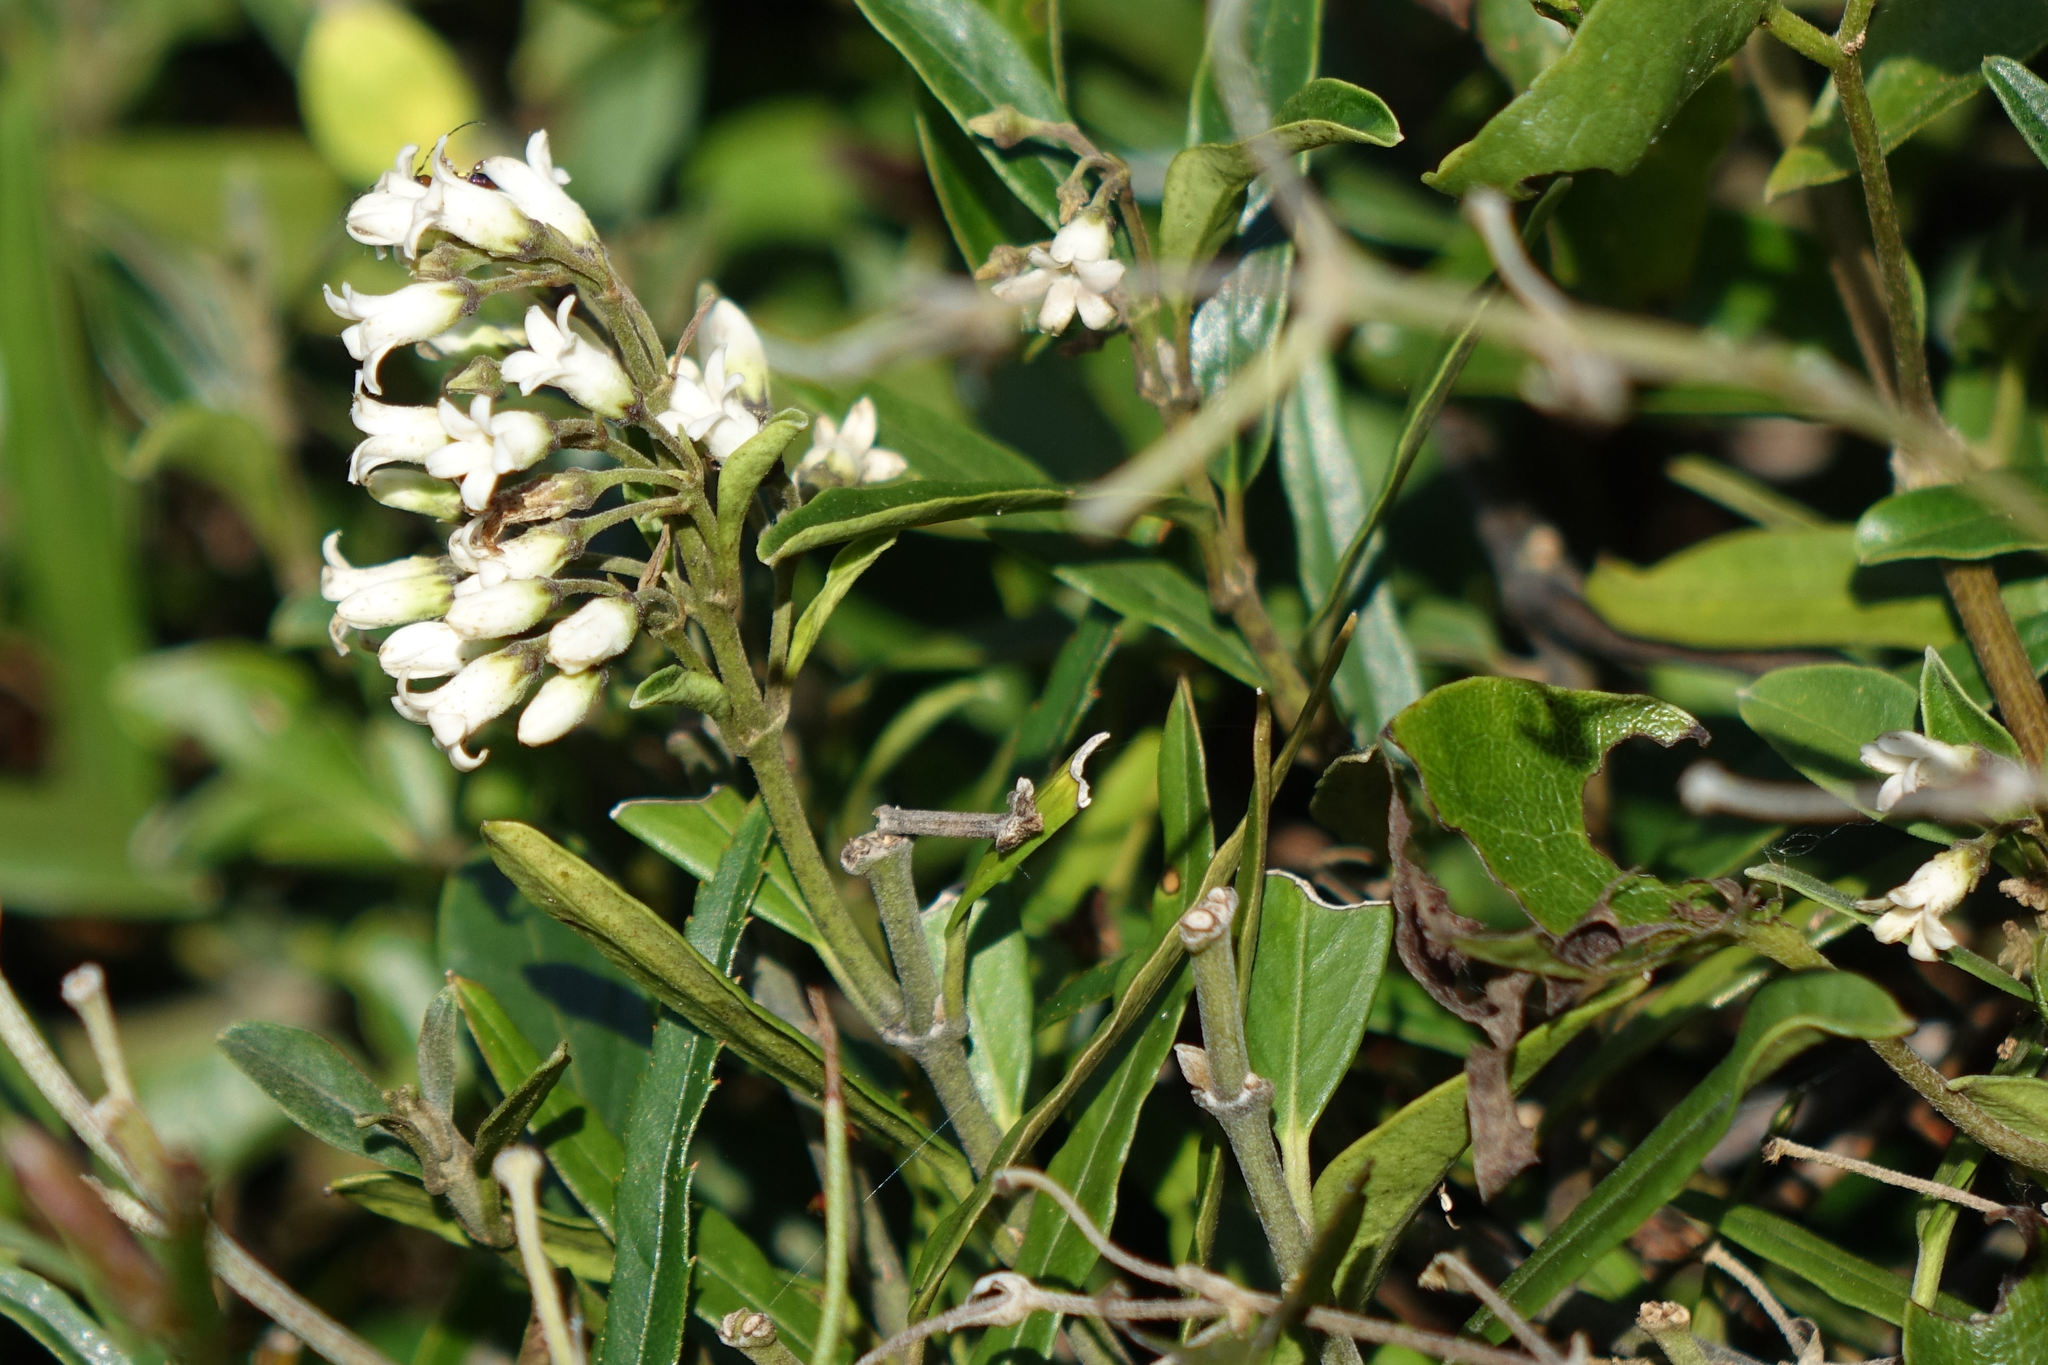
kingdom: Plantae
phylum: Tracheophyta
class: Magnoliopsida
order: Gentianales
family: Apocynaceae
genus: Parsonsia
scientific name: Parsonsia heterophylla
